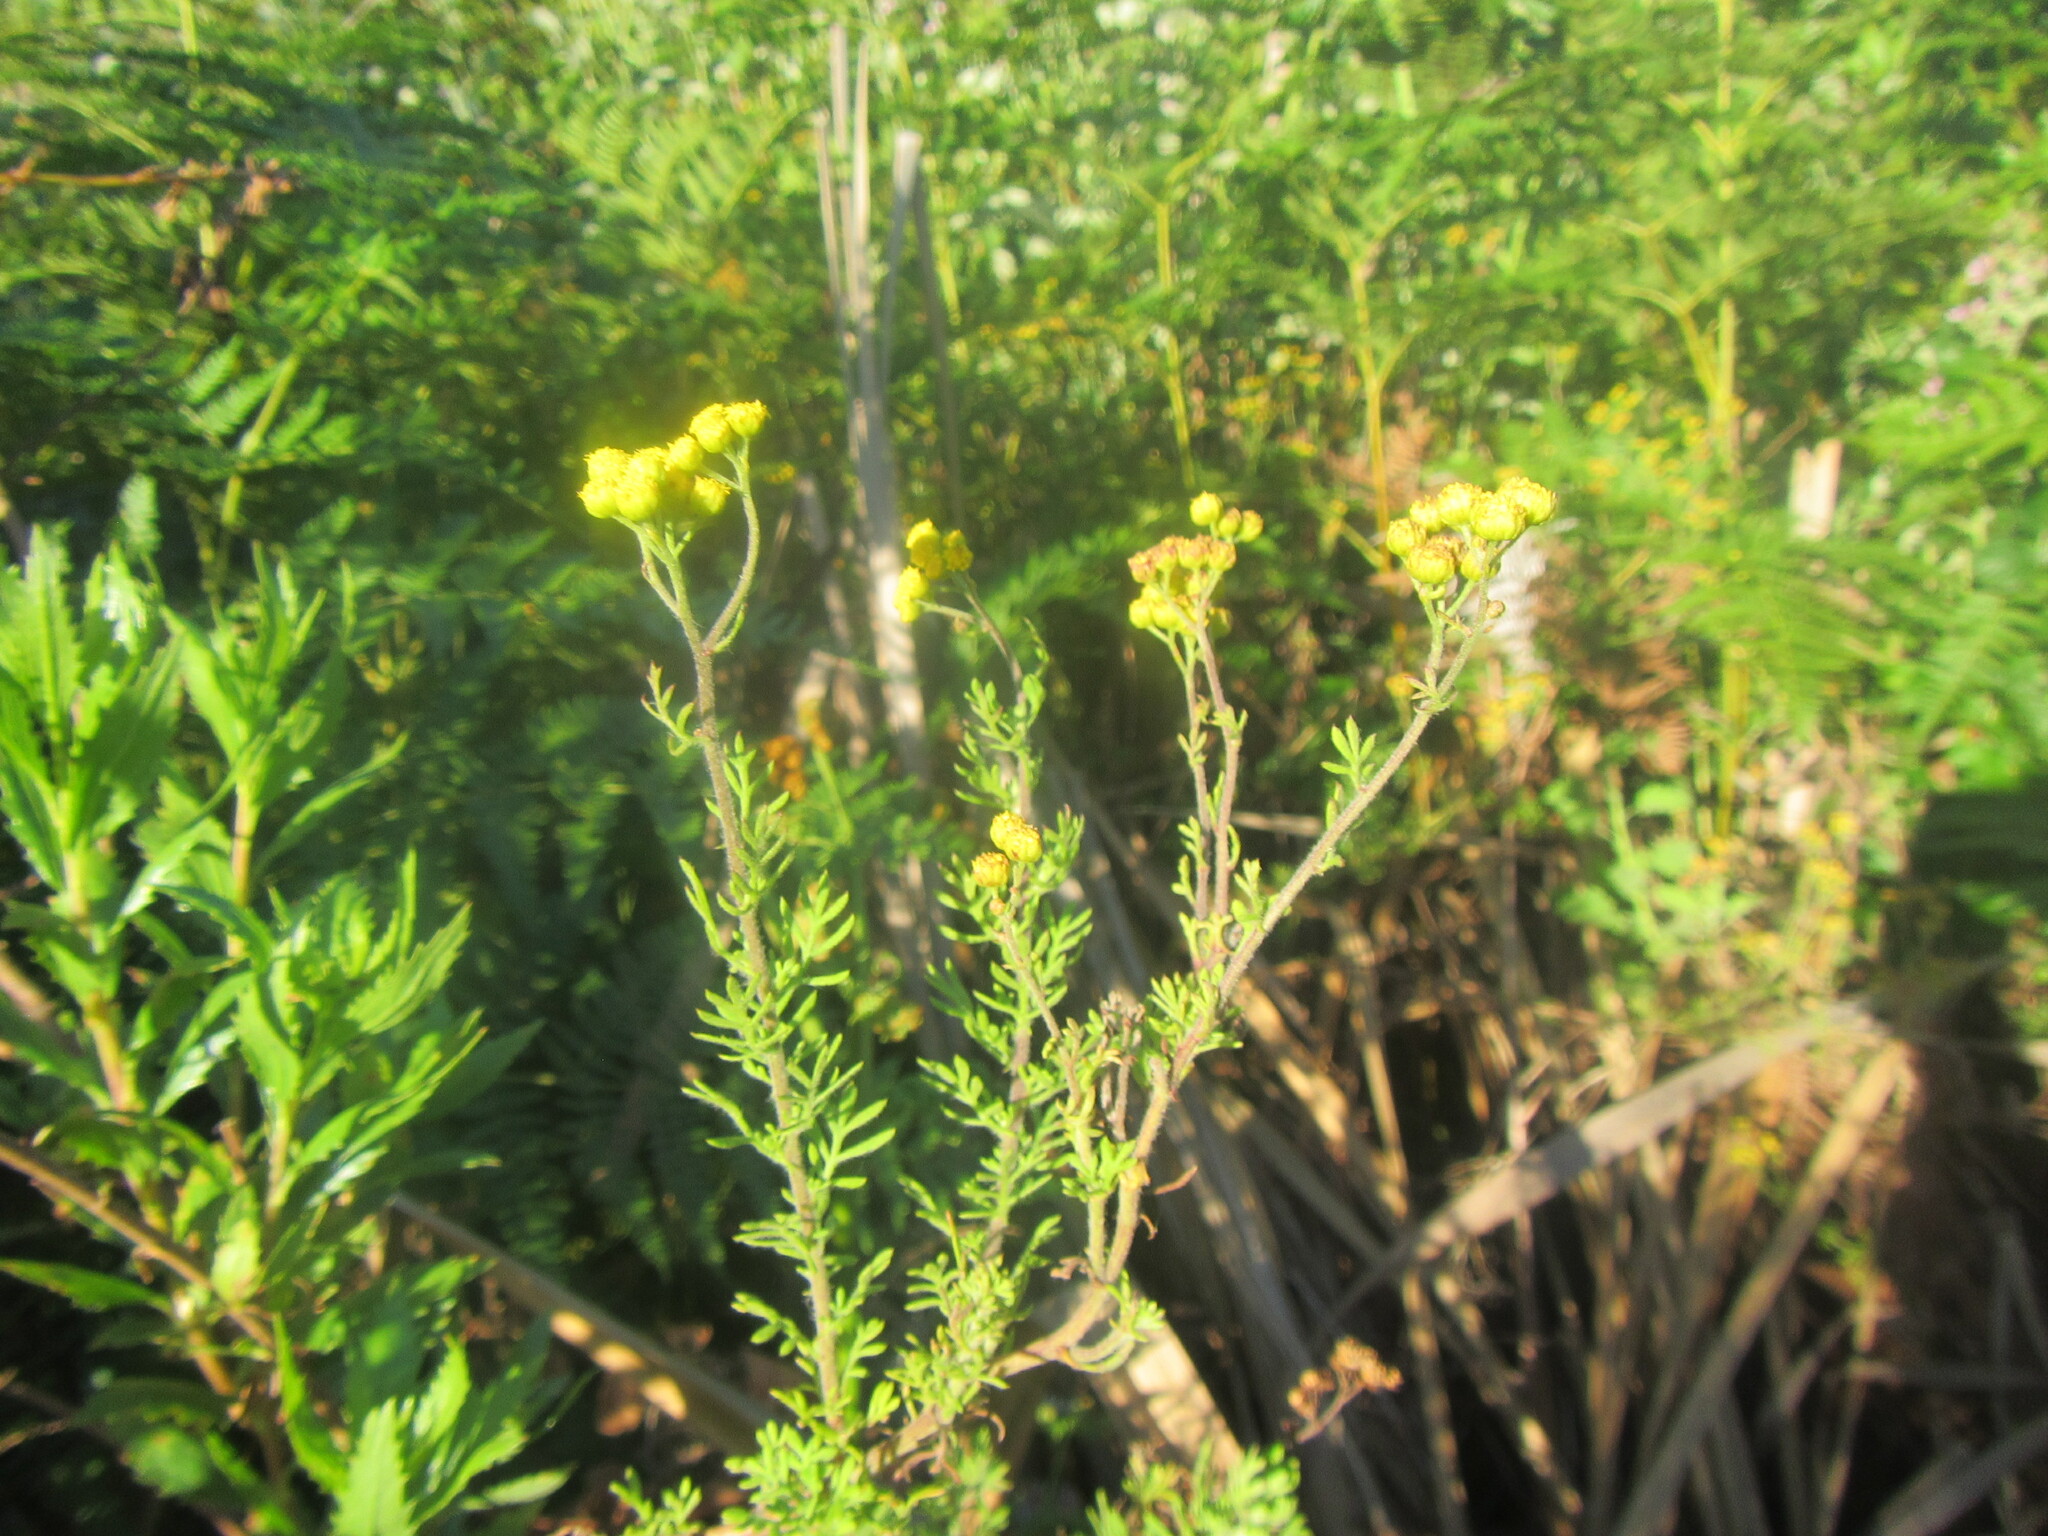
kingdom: Plantae
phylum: Tracheophyta
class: Magnoliopsida
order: Asterales
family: Asteraceae
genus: Hippia
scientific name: Hippia frutescens
